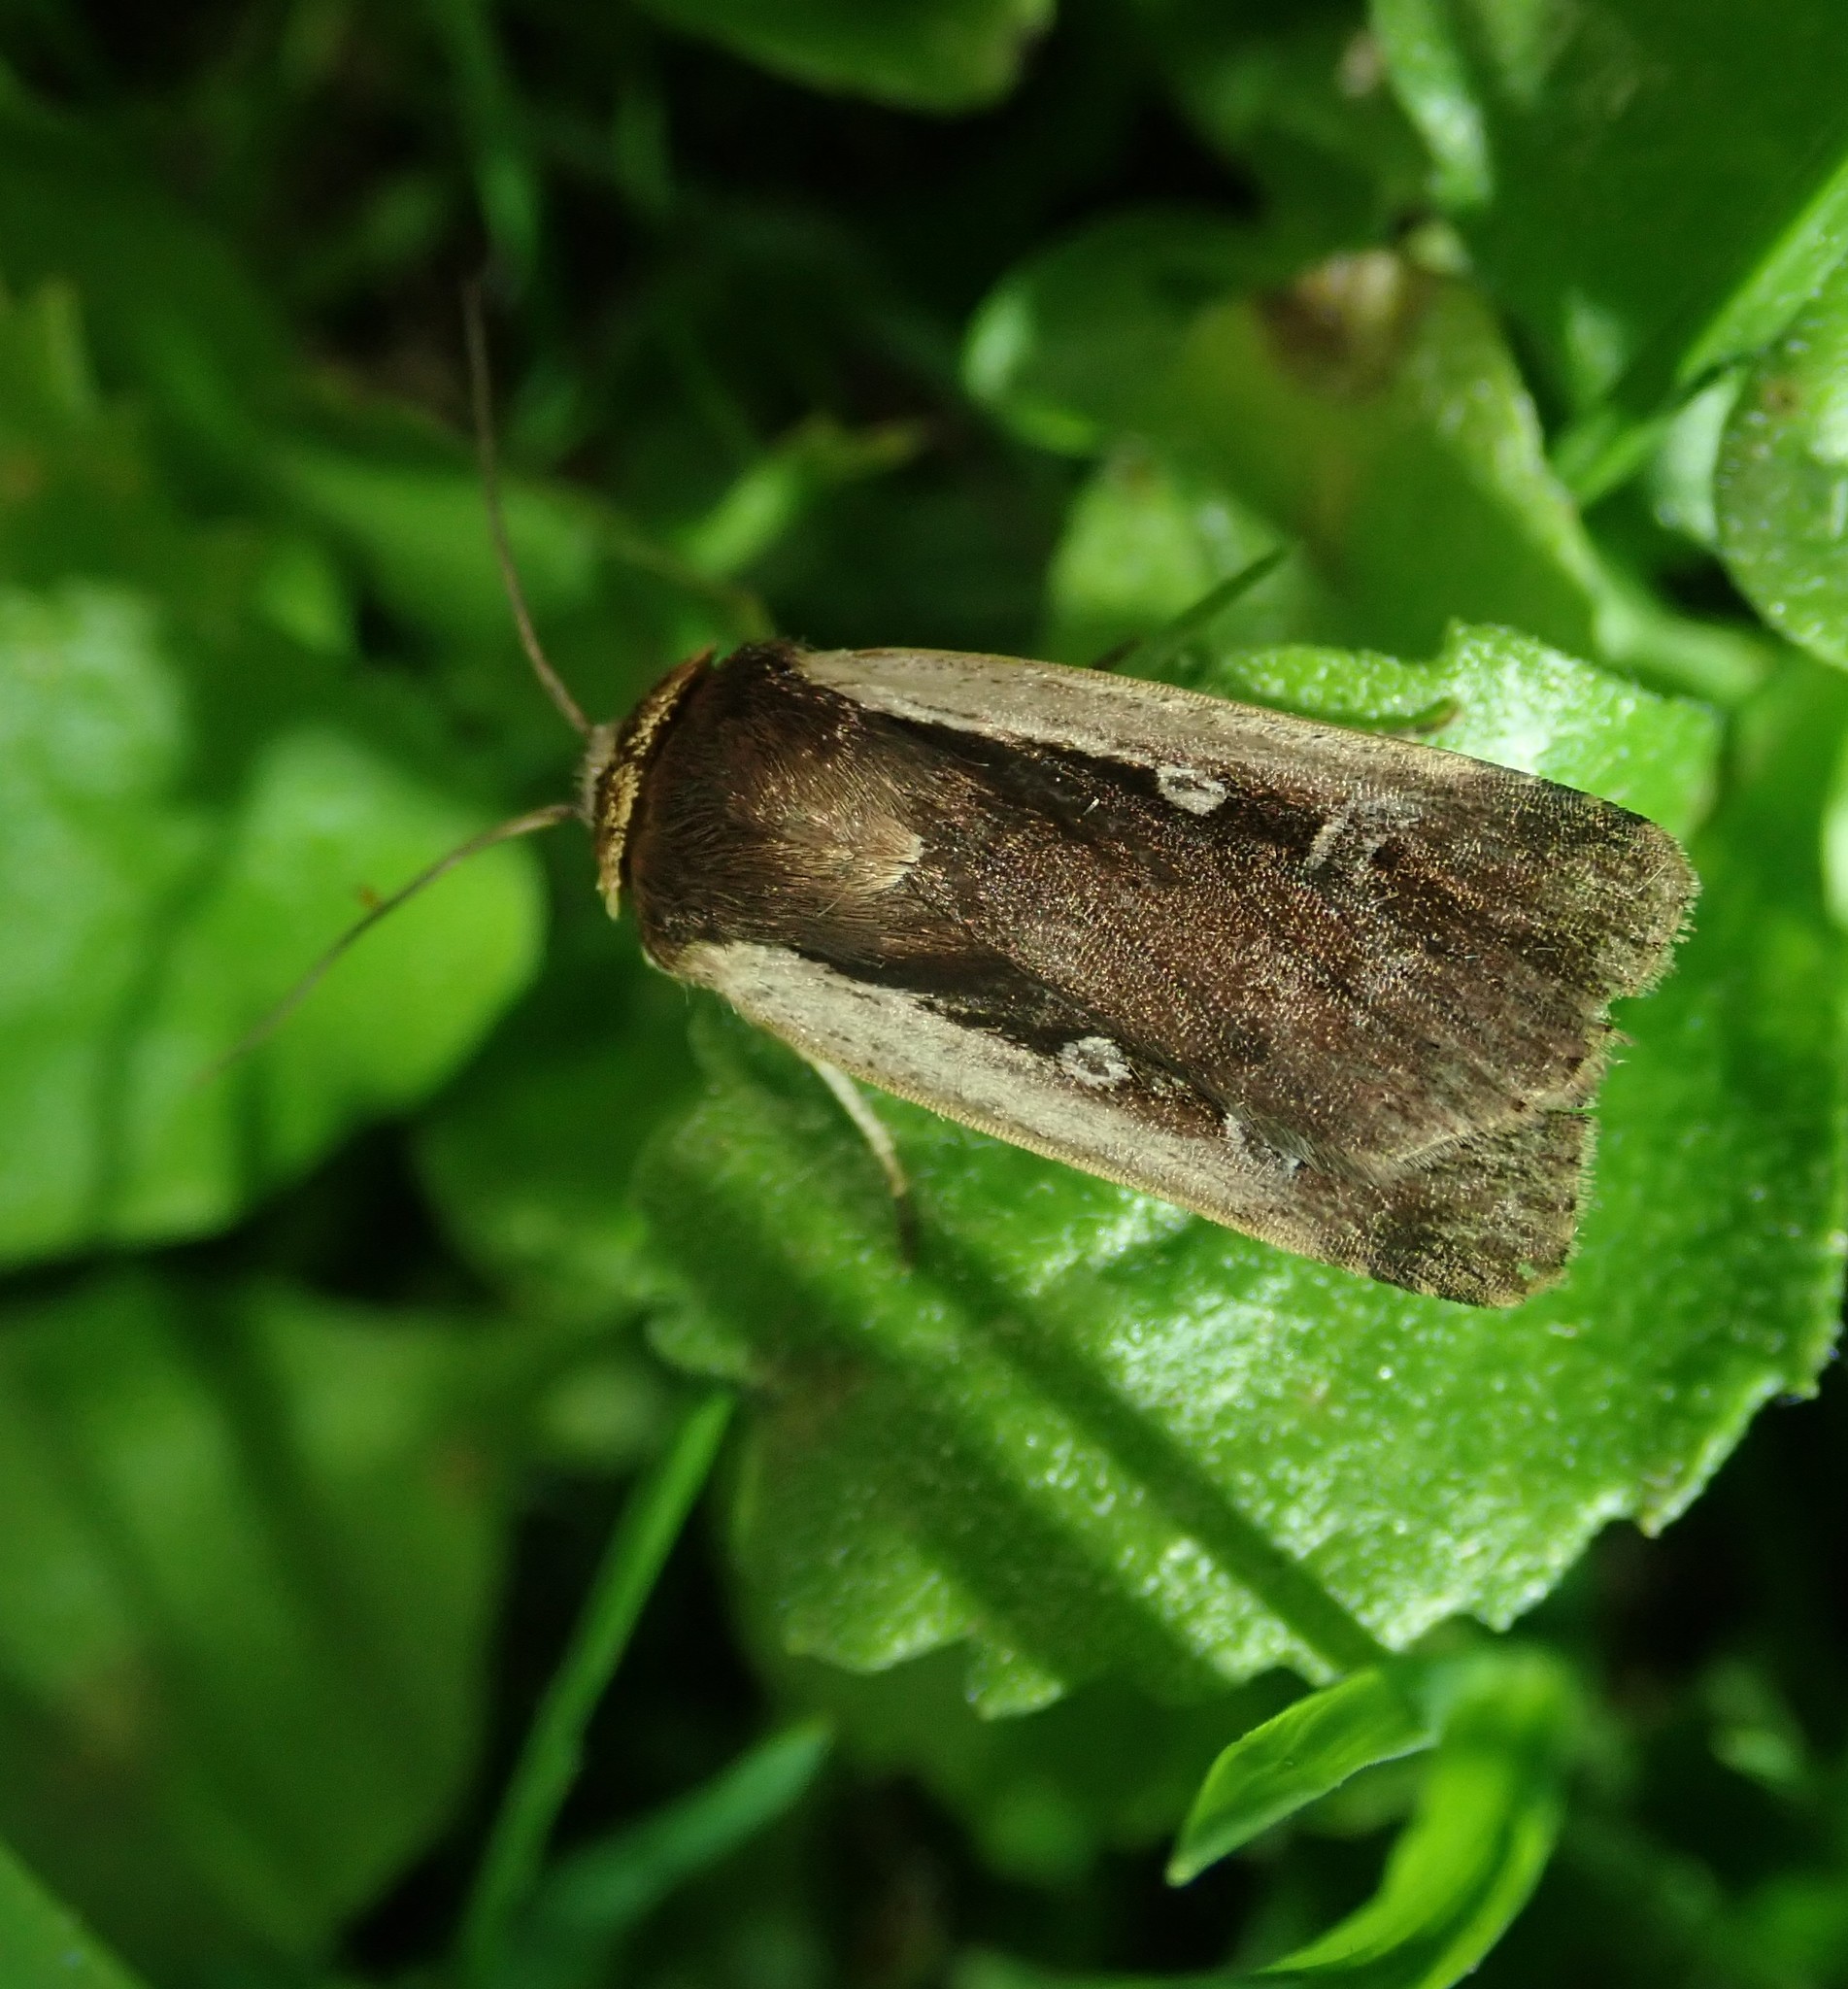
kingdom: Animalia
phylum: Arthropoda
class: Insecta
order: Lepidoptera
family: Noctuidae
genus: Ochropleura
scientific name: Ochropleura plecta
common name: Flame shoulder
